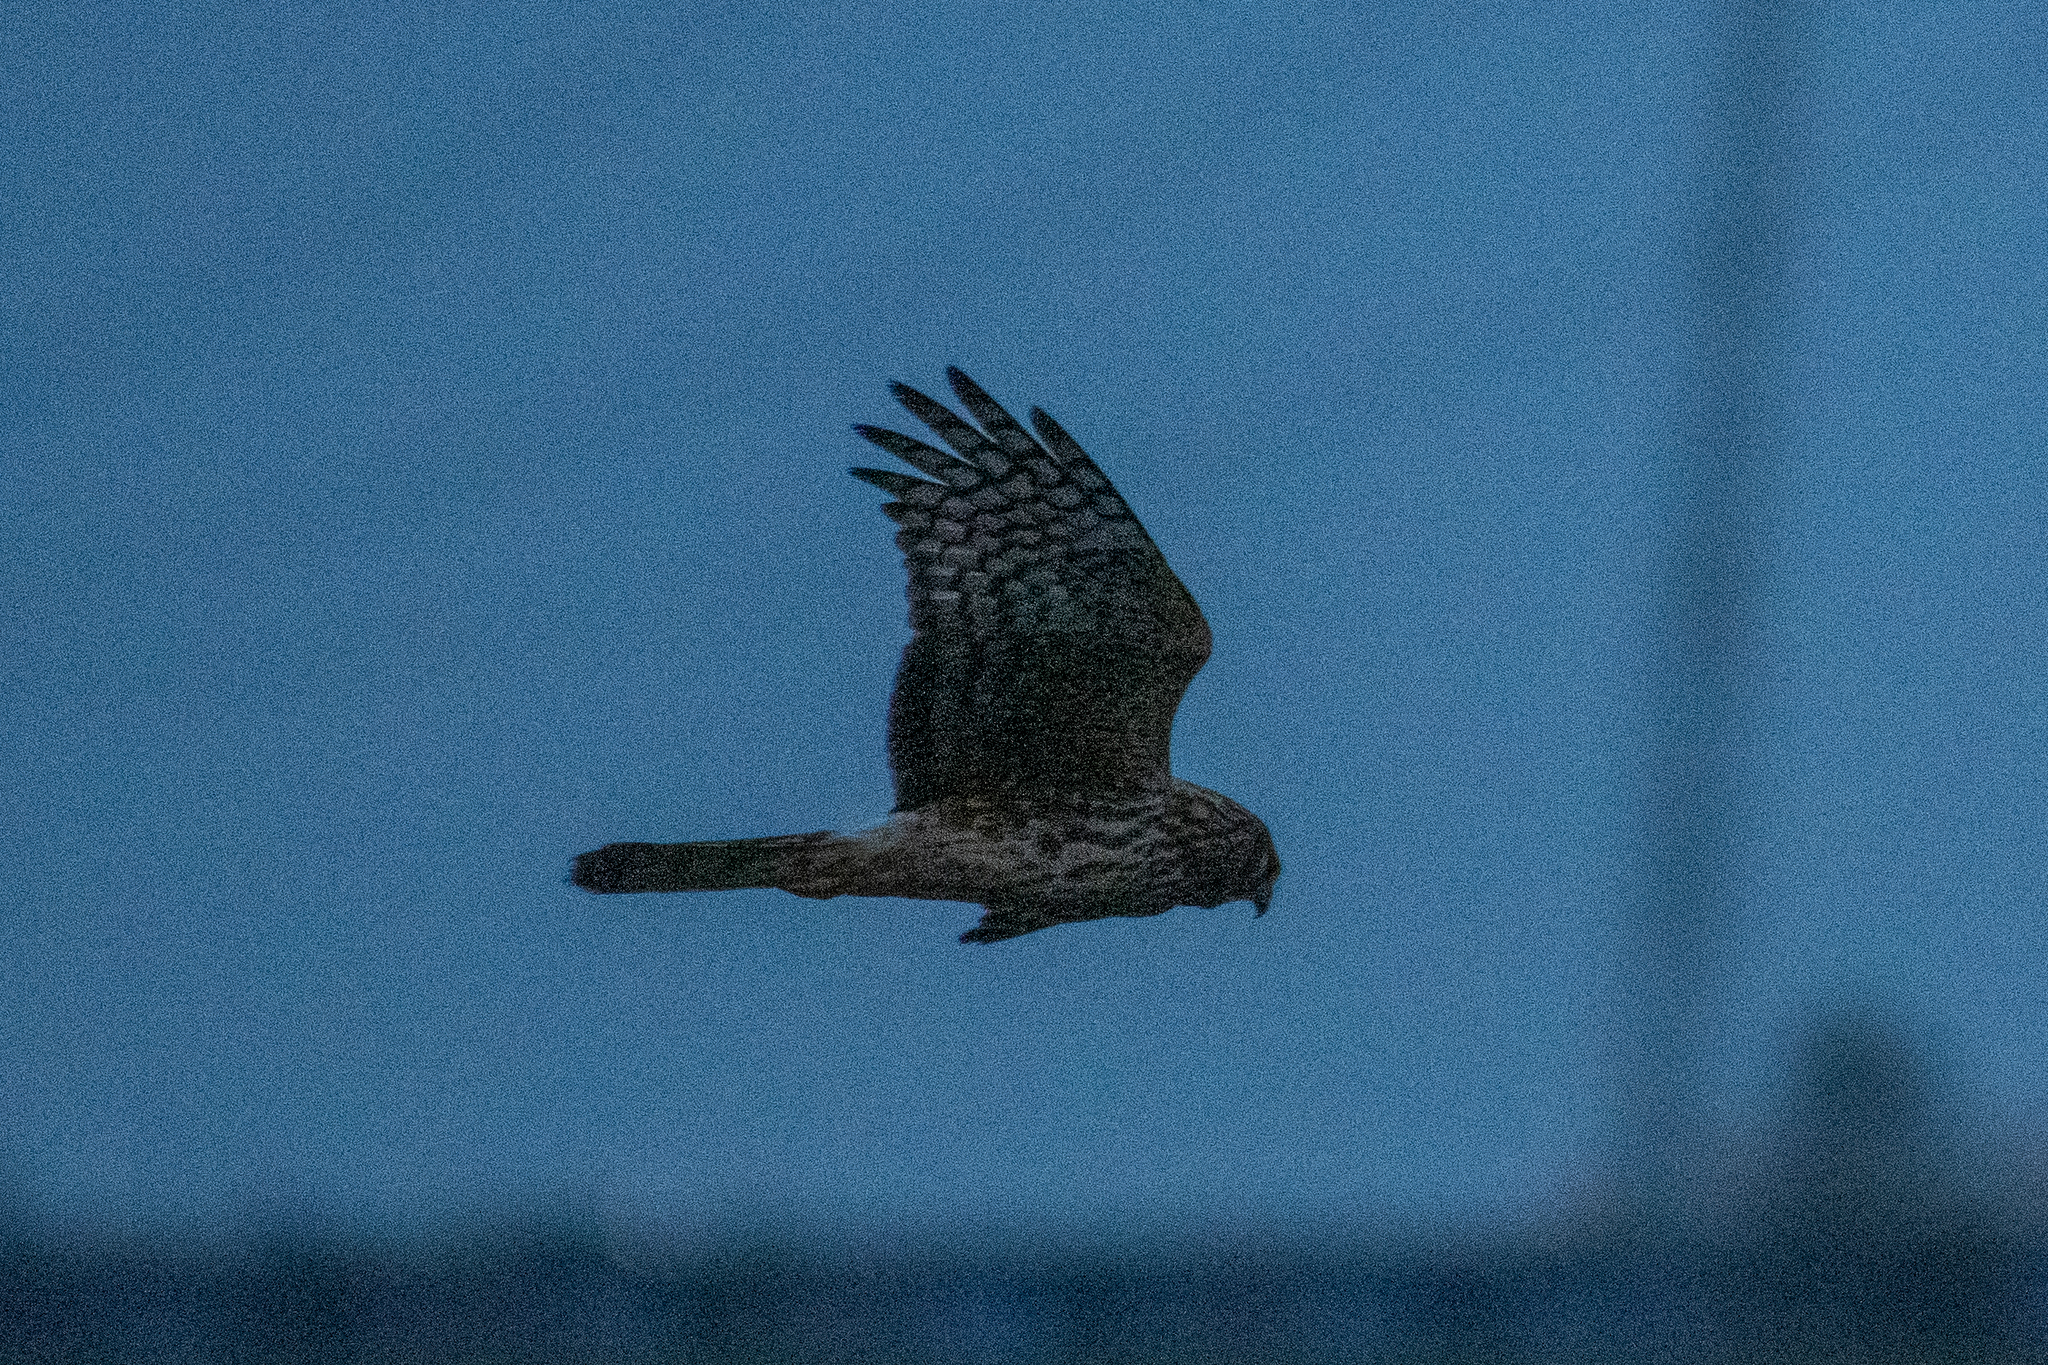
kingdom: Animalia
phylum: Chordata
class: Aves
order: Accipitriformes
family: Accipitridae
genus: Circus
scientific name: Circus cyaneus
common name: Hen harrier
